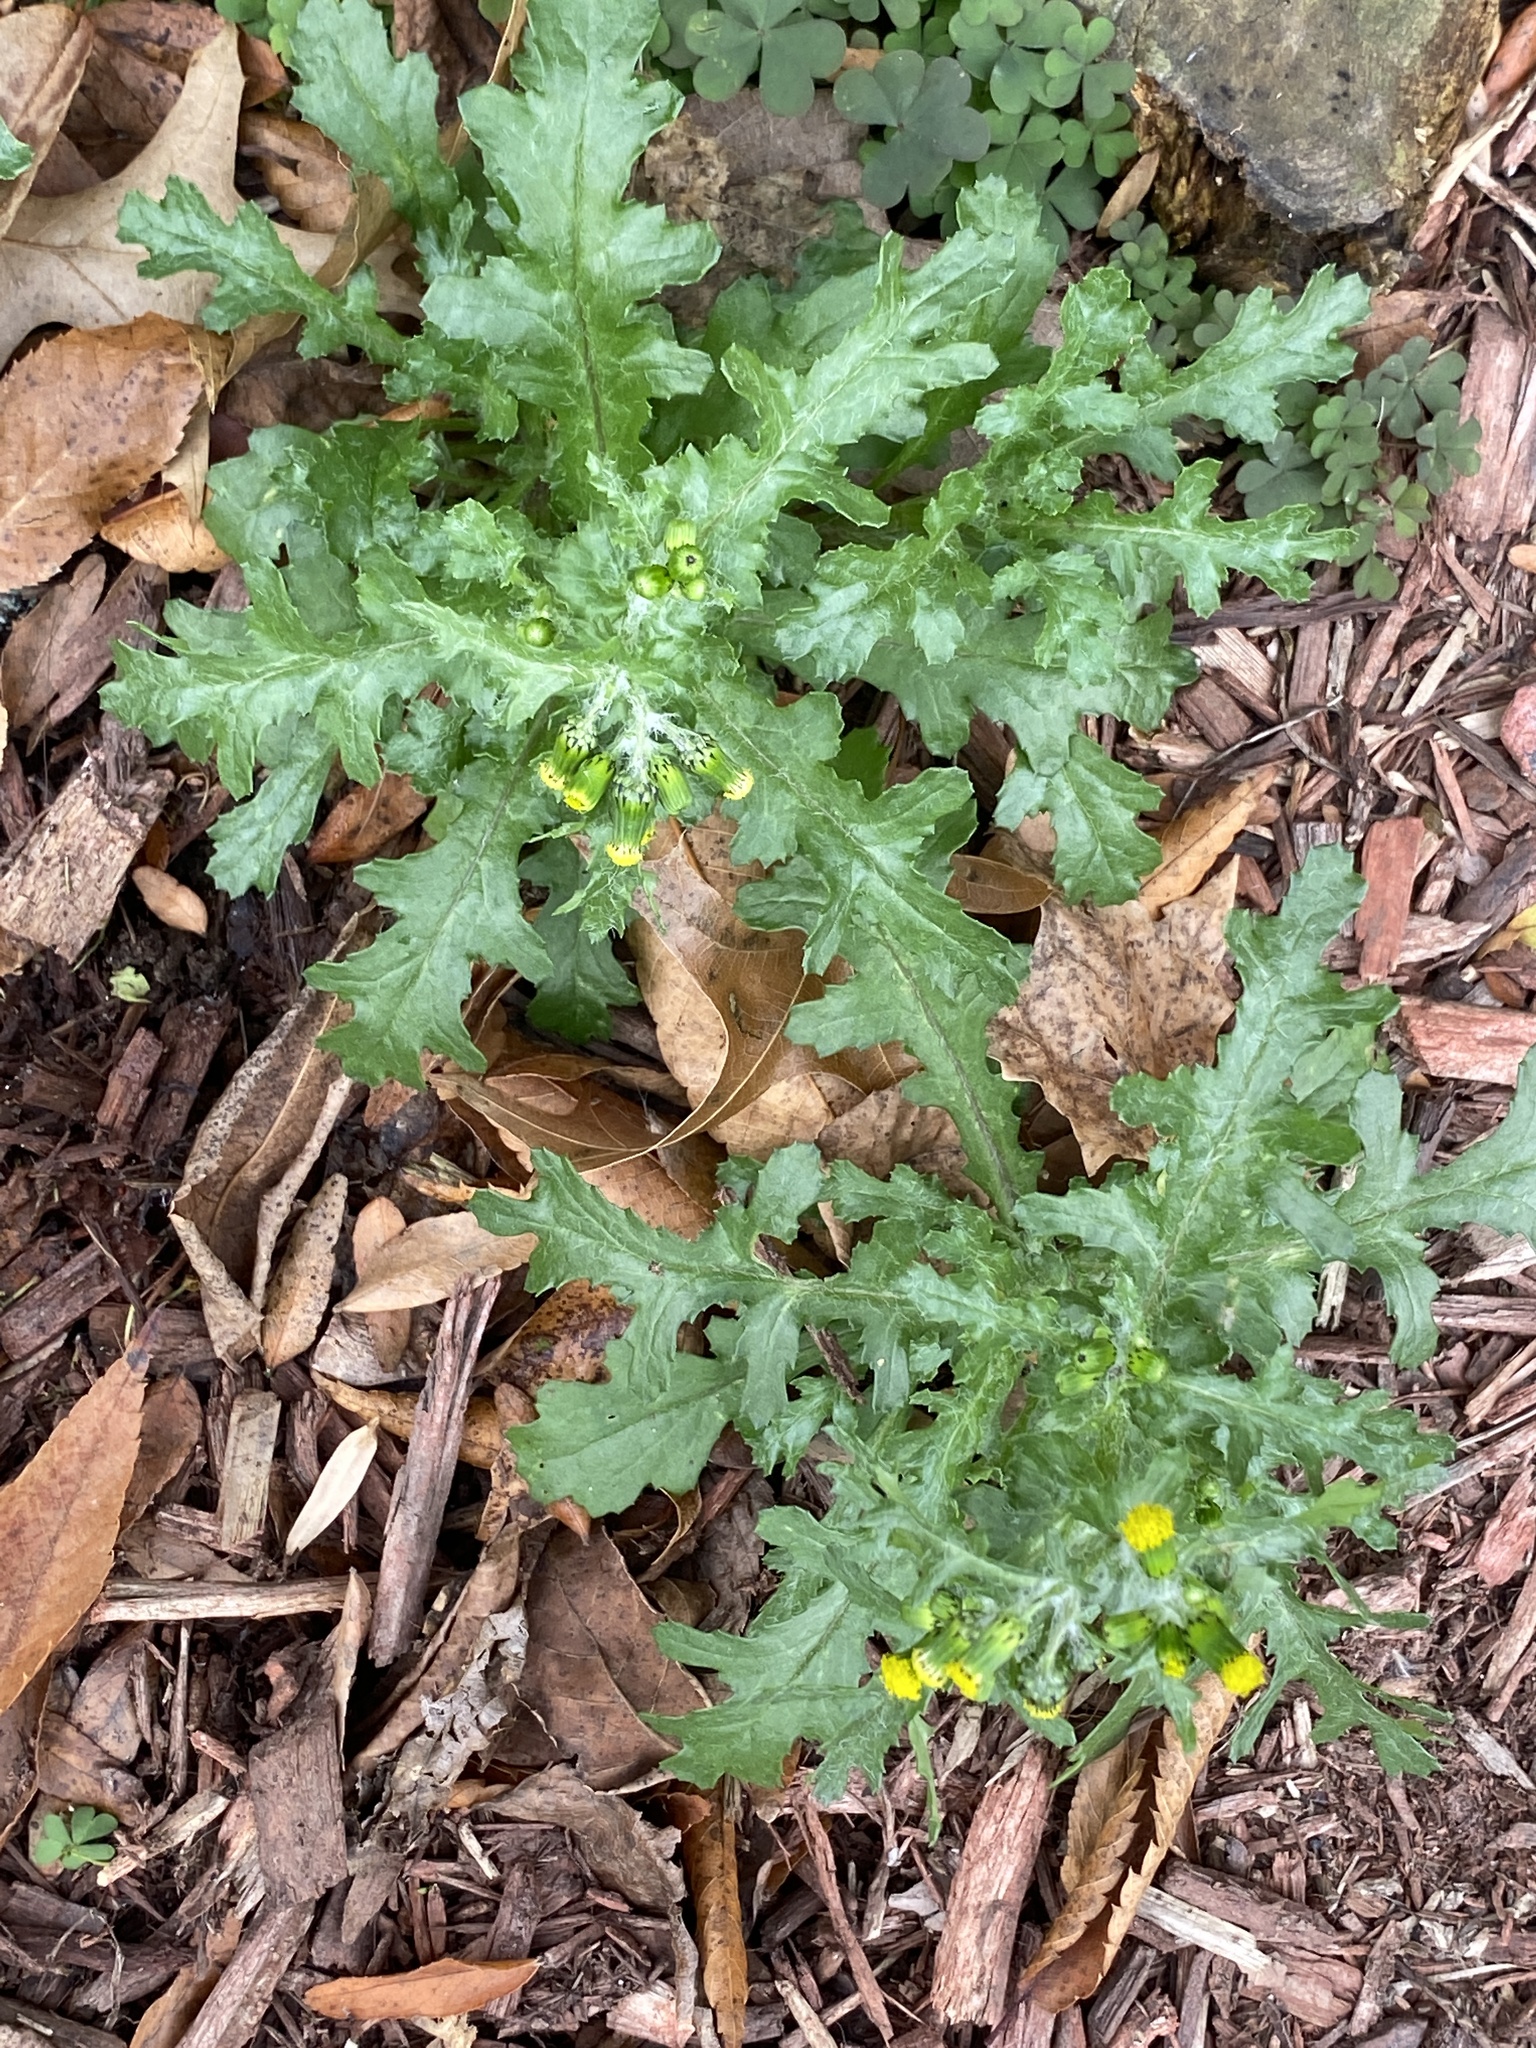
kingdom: Plantae
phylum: Tracheophyta
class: Magnoliopsida
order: Asterales
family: Asteraceae
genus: Senecio
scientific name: Senecio vulgaris
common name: Old-man-in-the-spring
